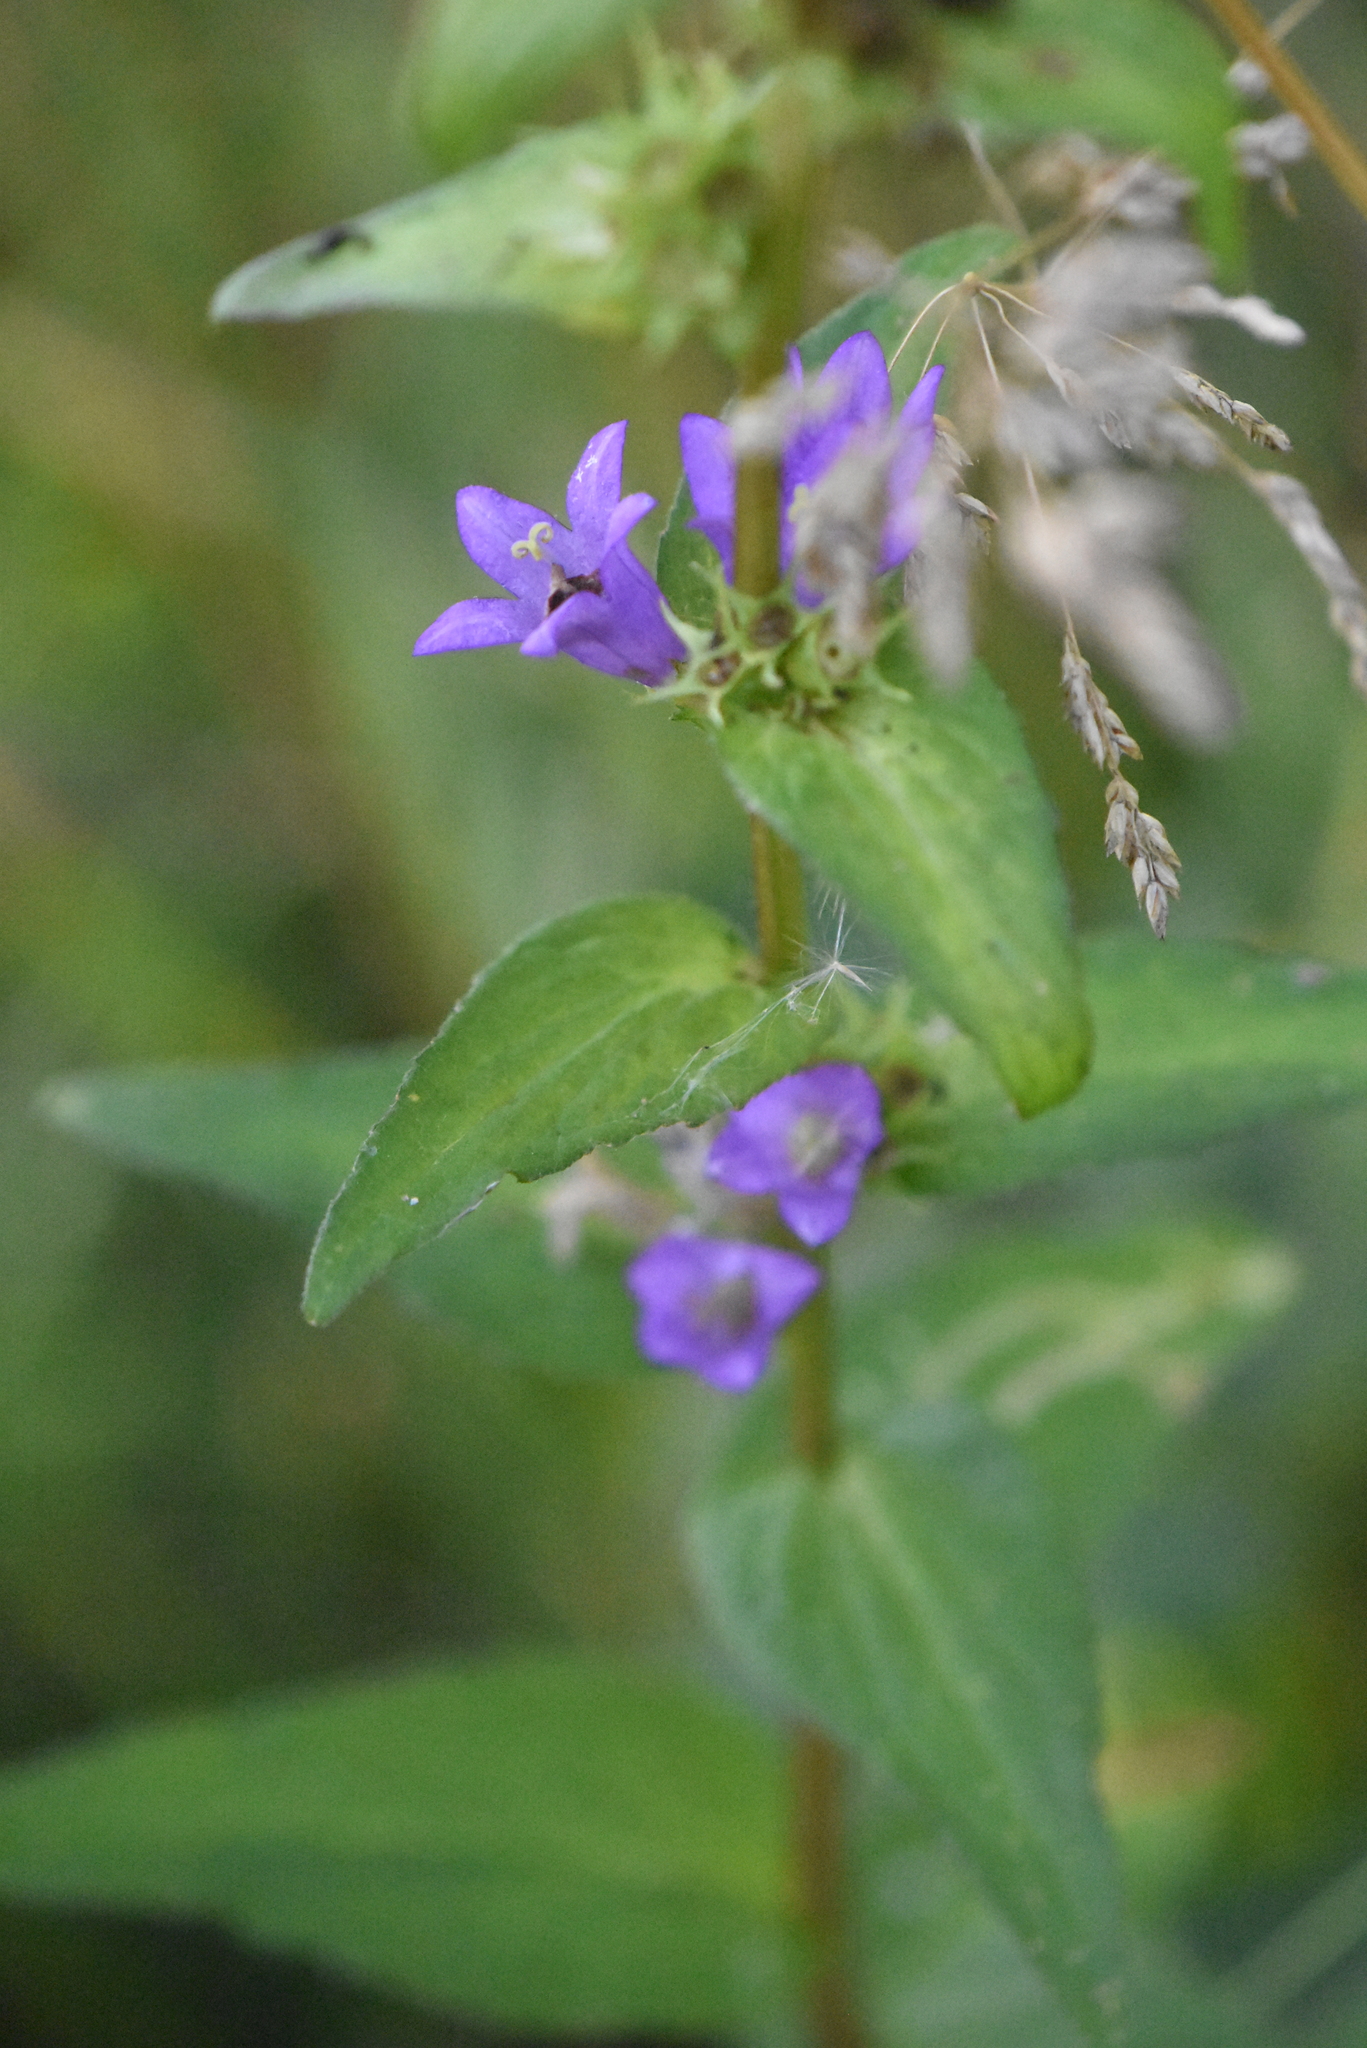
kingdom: Plantae
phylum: Tracheophyta
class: Magnoliopsida
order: Asterales
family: Campanulaceae
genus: Campanula
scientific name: Campanula glomerata
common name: Clustered bellflower
